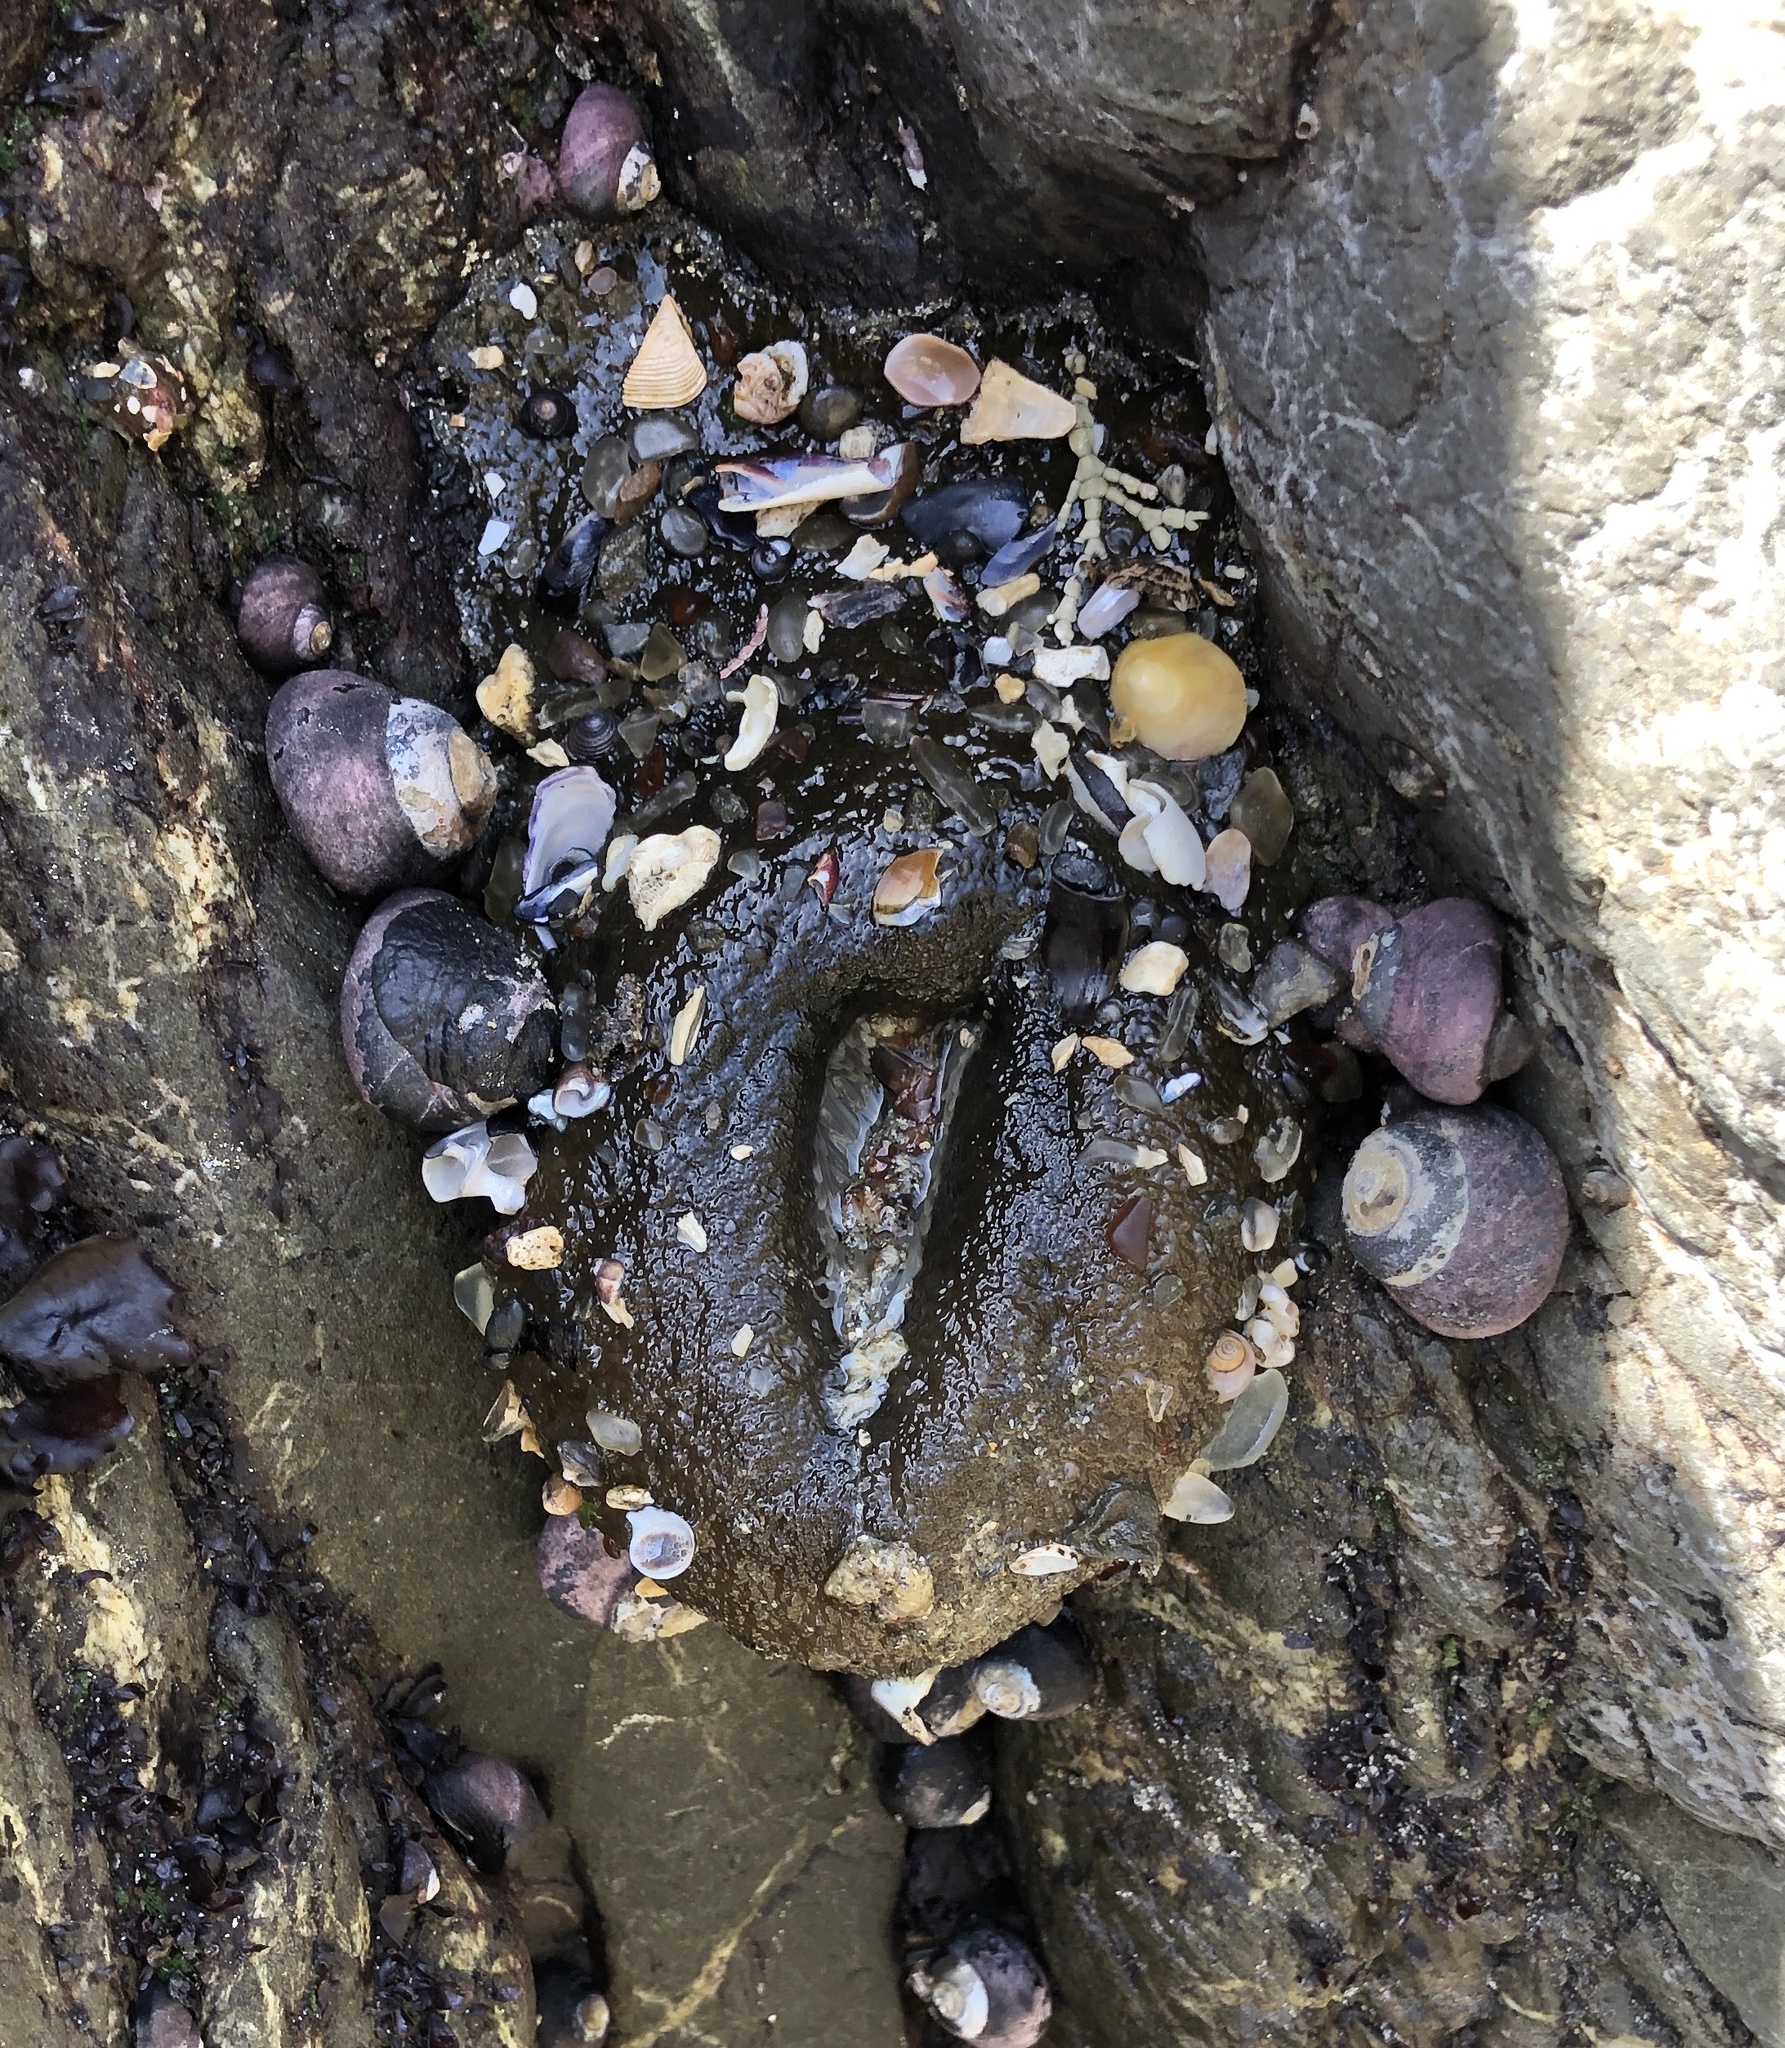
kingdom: Animalia
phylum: Cnidaria
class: Anthozoa
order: Actiniaria
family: Actiniidae
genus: Anthopleura
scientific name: Anthopleura xanthogrammica
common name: Giant green anemone
